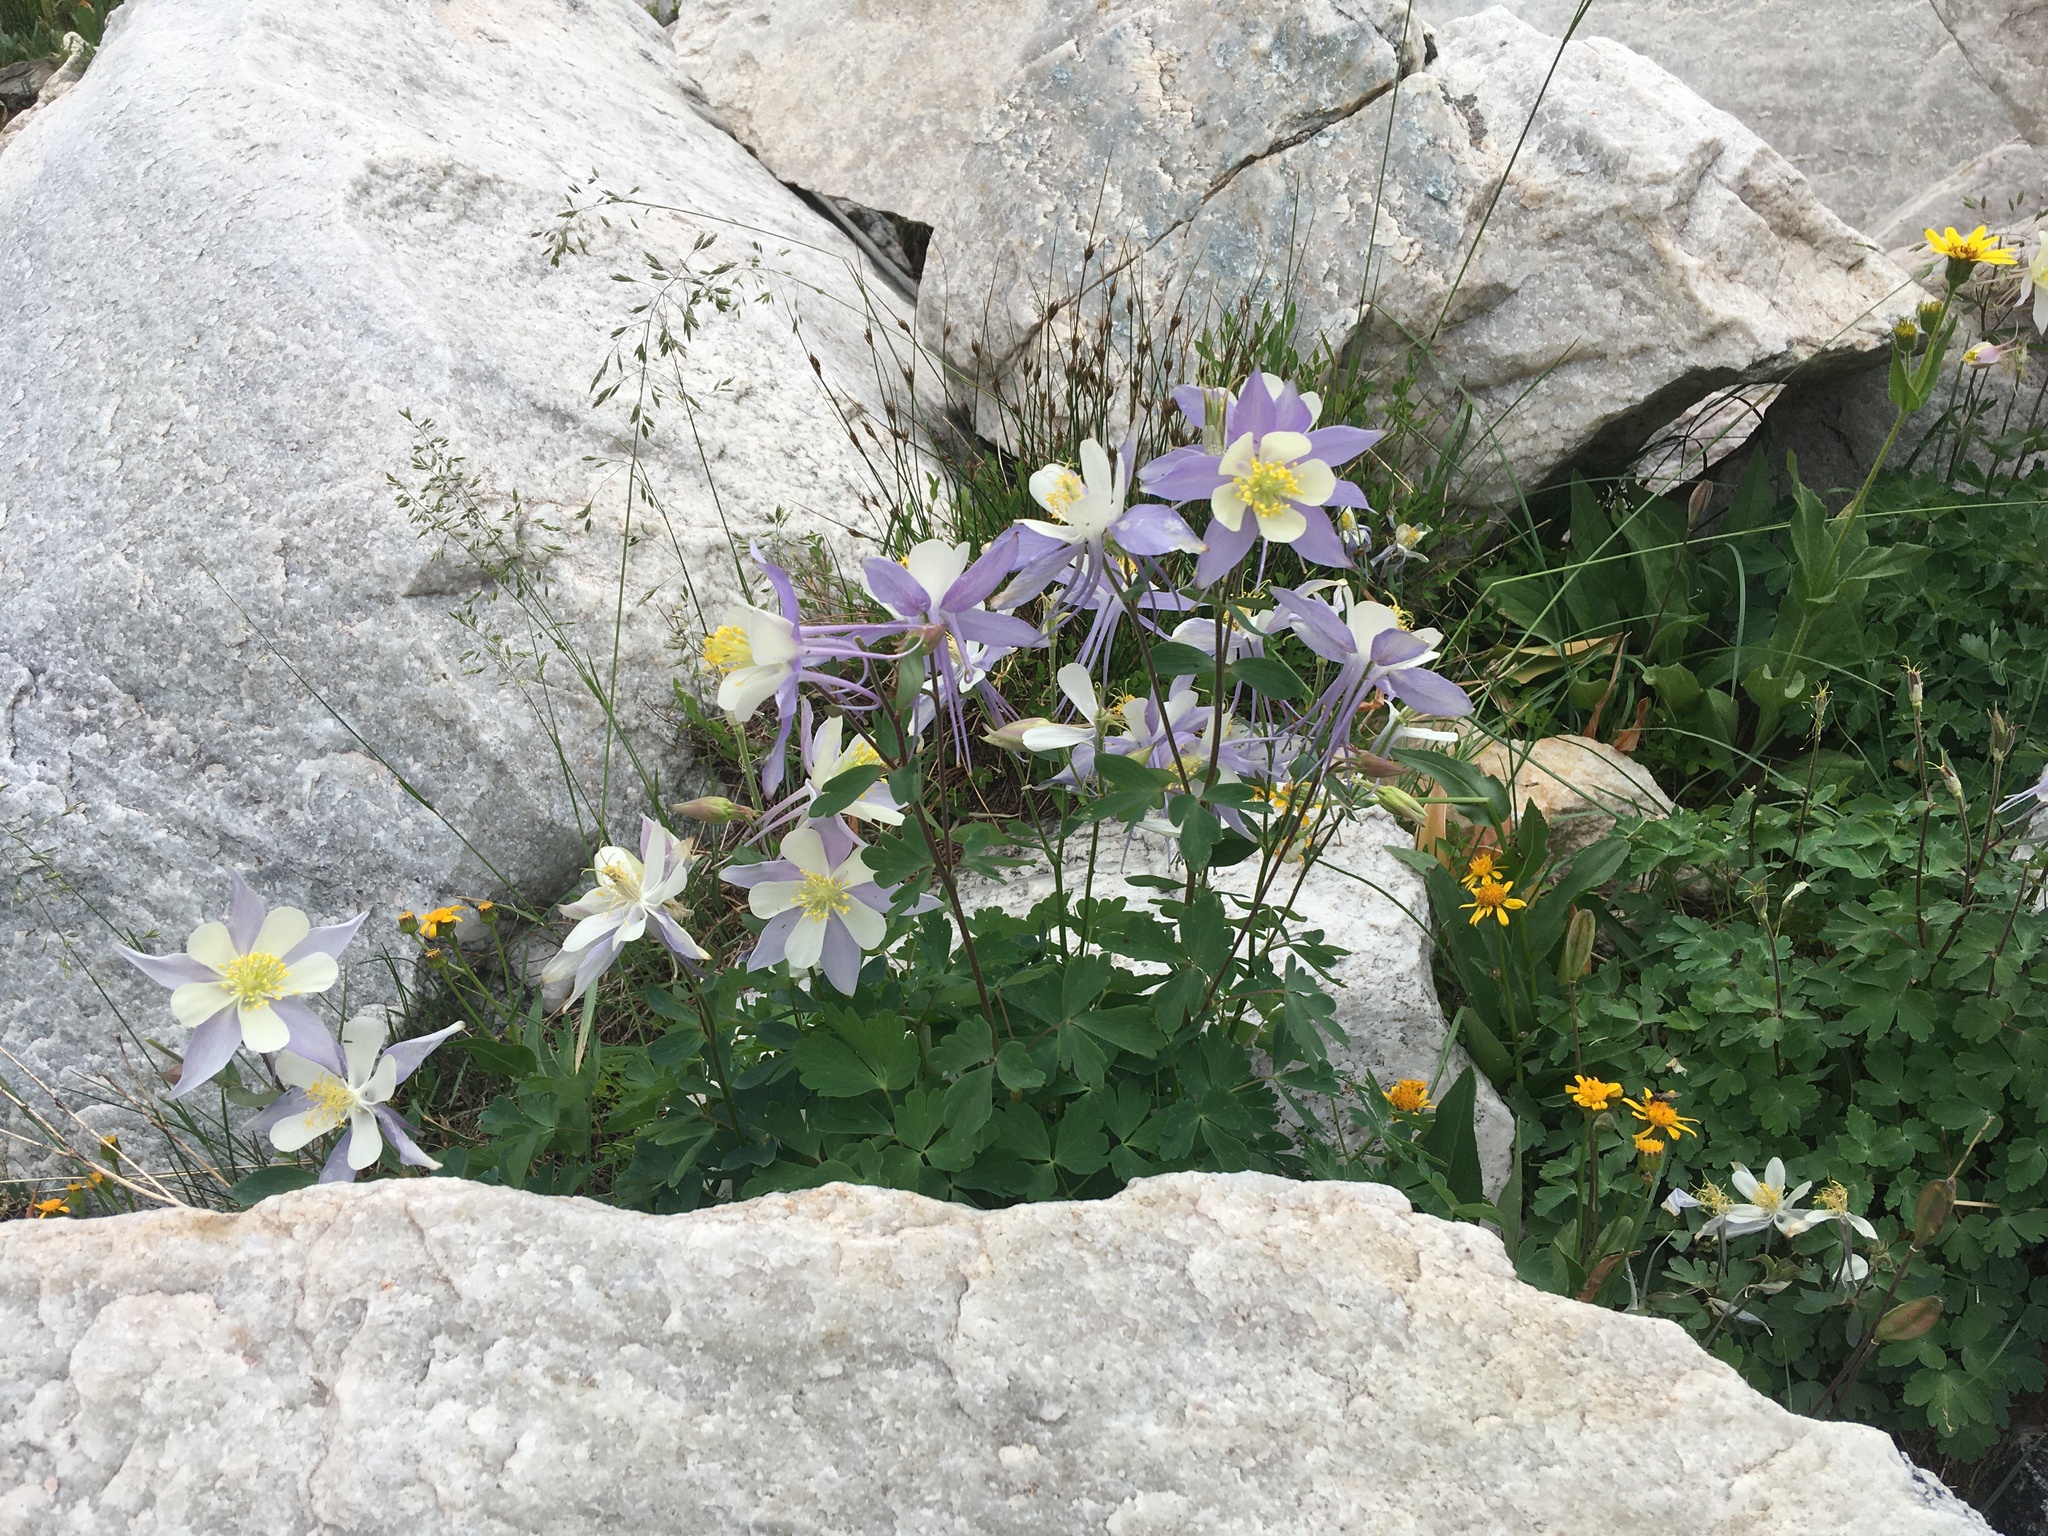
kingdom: Plantae
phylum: Tracheophyta
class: Magnoliopsida
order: Ranunculales
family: Ranunculaceae
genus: Aquilegia
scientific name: Aquilegia coerulea
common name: Rocky mountain columbine
